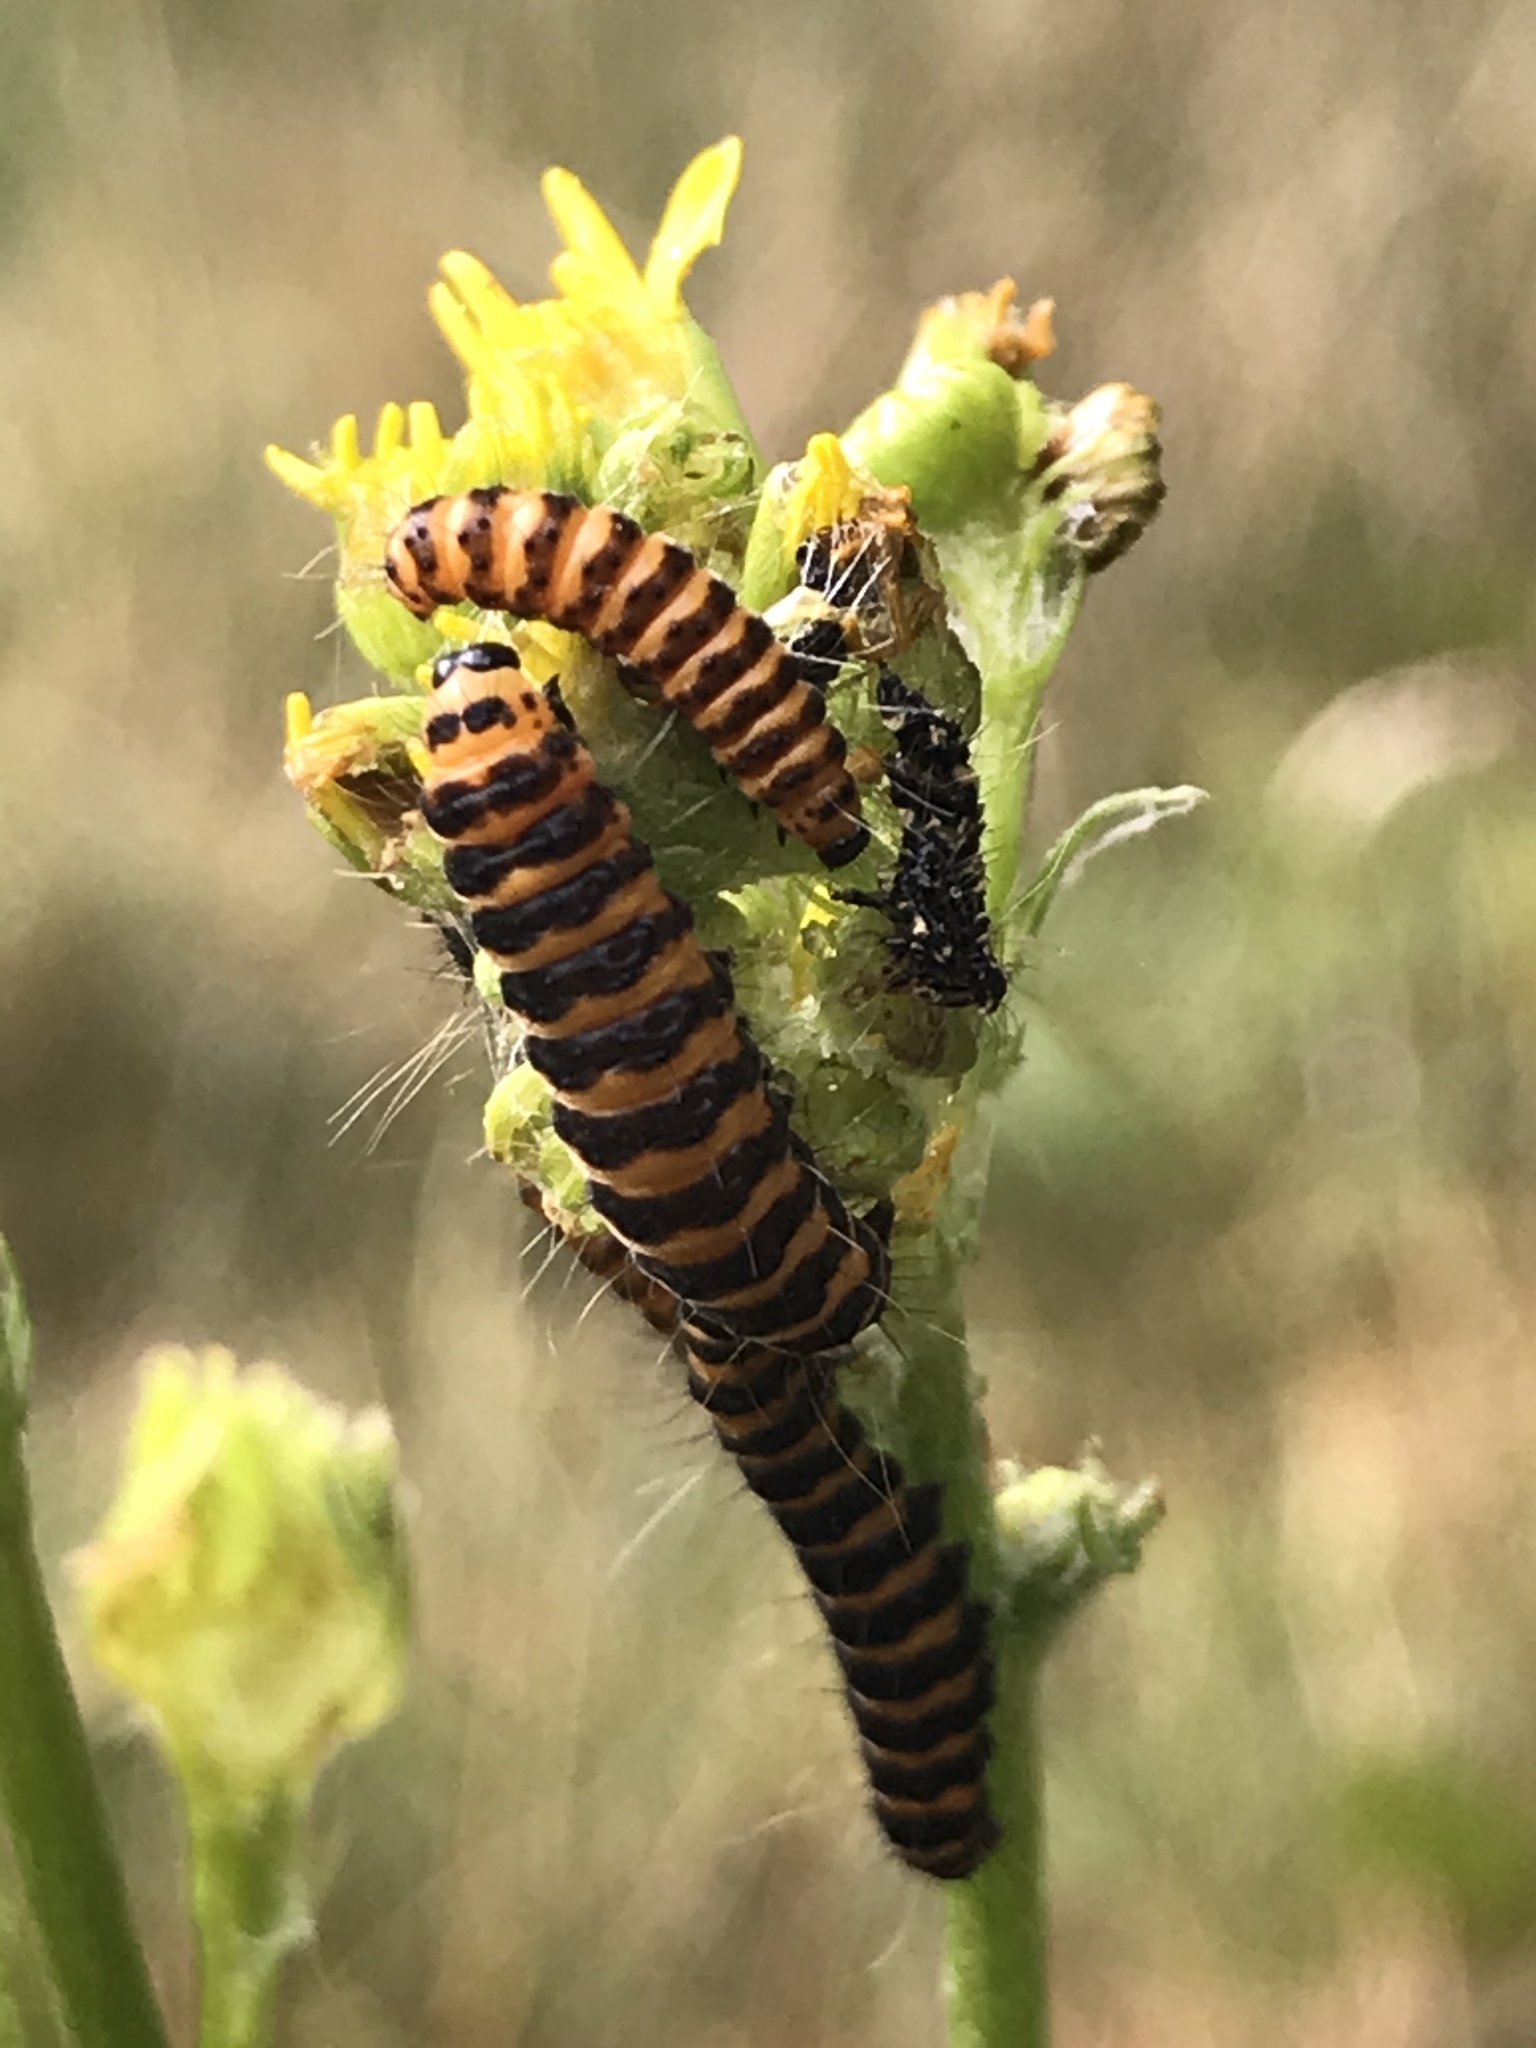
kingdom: Animalia
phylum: Arthropoda
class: Insecta
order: Lepidoptera
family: Erebidae
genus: Tyria
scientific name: Tyria jacobaeae
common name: Cinnabar
